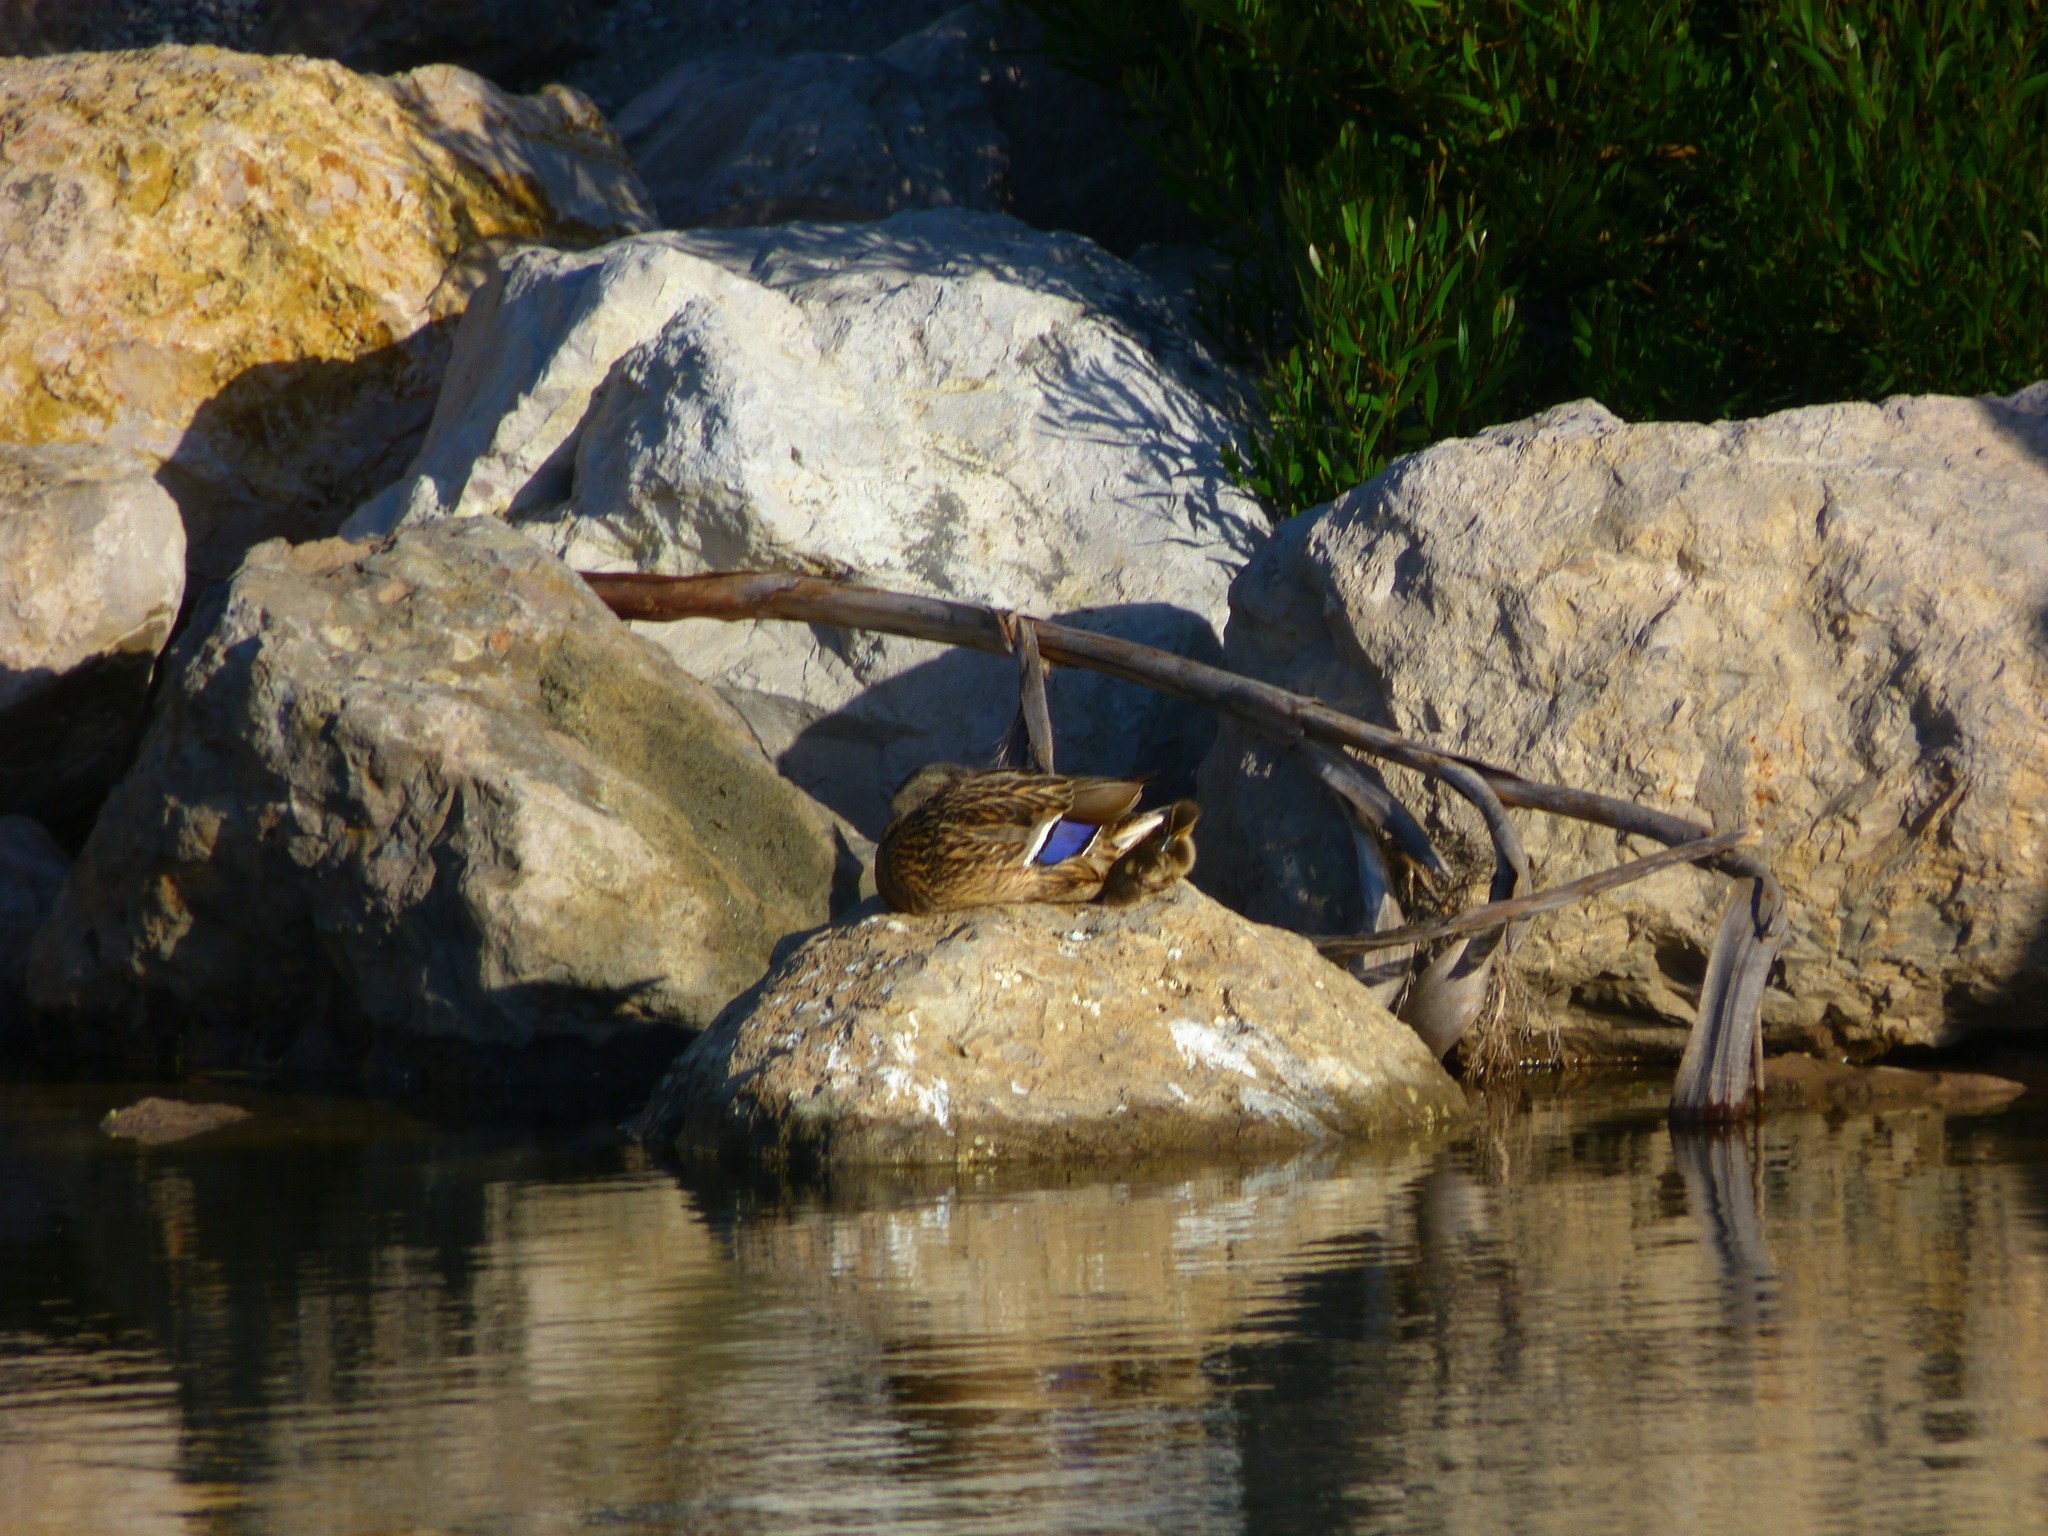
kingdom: Animalia
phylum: Chordata
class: Aves
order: Anseriformes
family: Anatidae
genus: Anas
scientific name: Anas platyrhynchos
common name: Mallard
